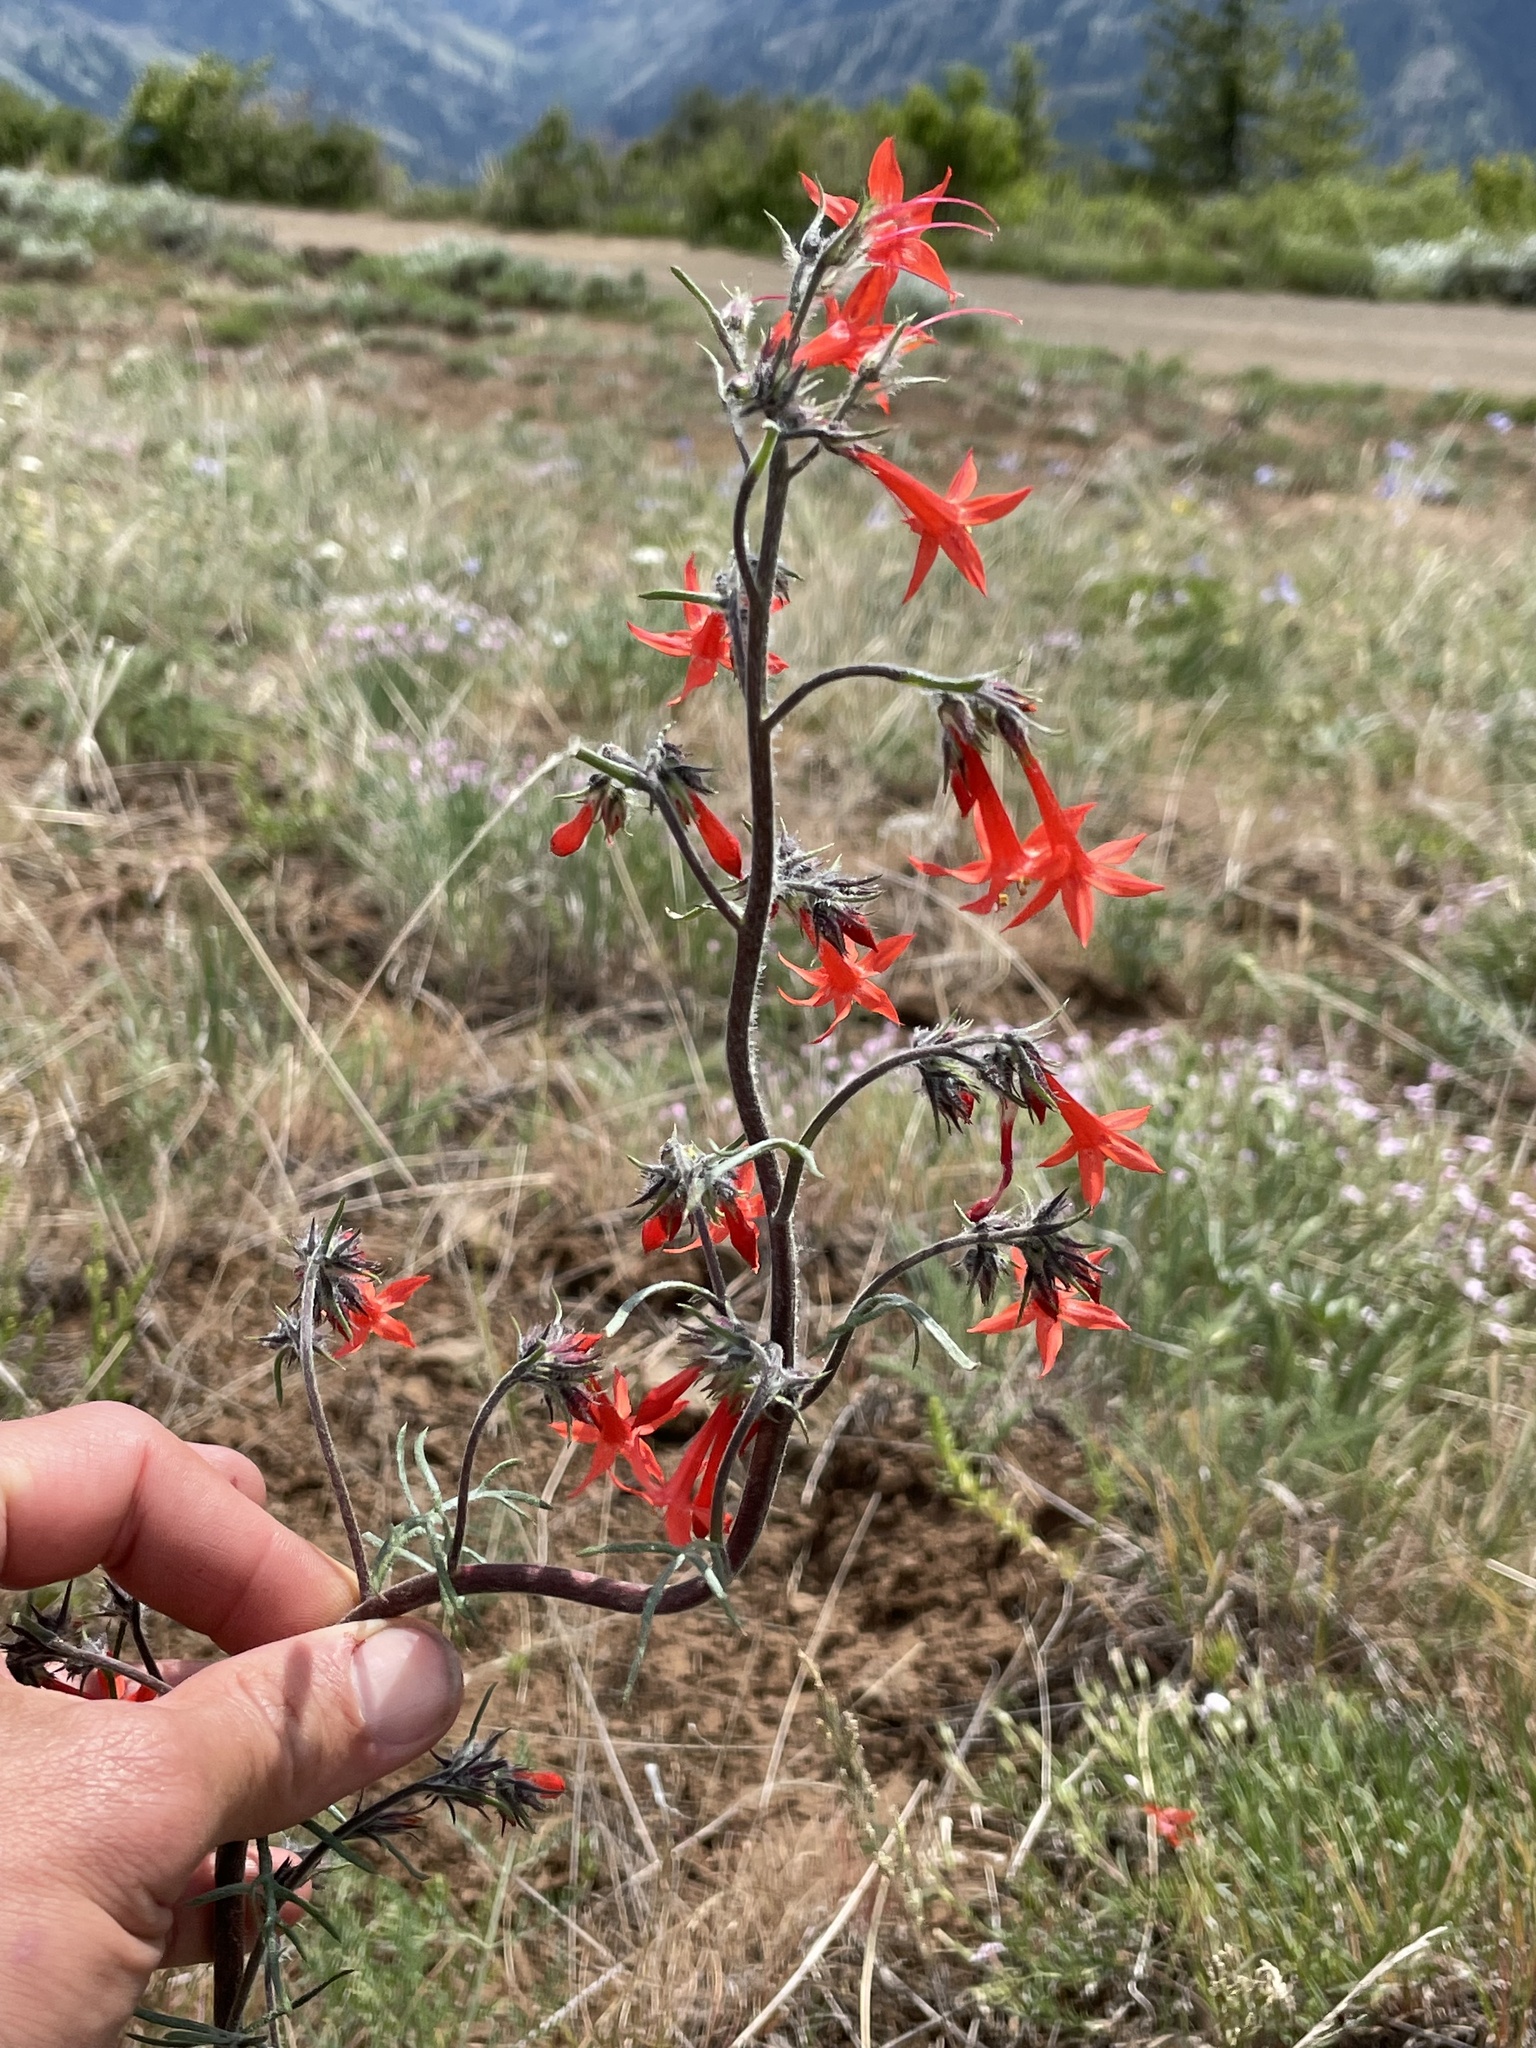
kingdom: Plantae
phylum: Tracheophyta
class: Magnoliopsida
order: Ericales
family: Polemoniaceae
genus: Ipomopsis
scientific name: Ipomopsis aggregata
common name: Scarlet gilia
